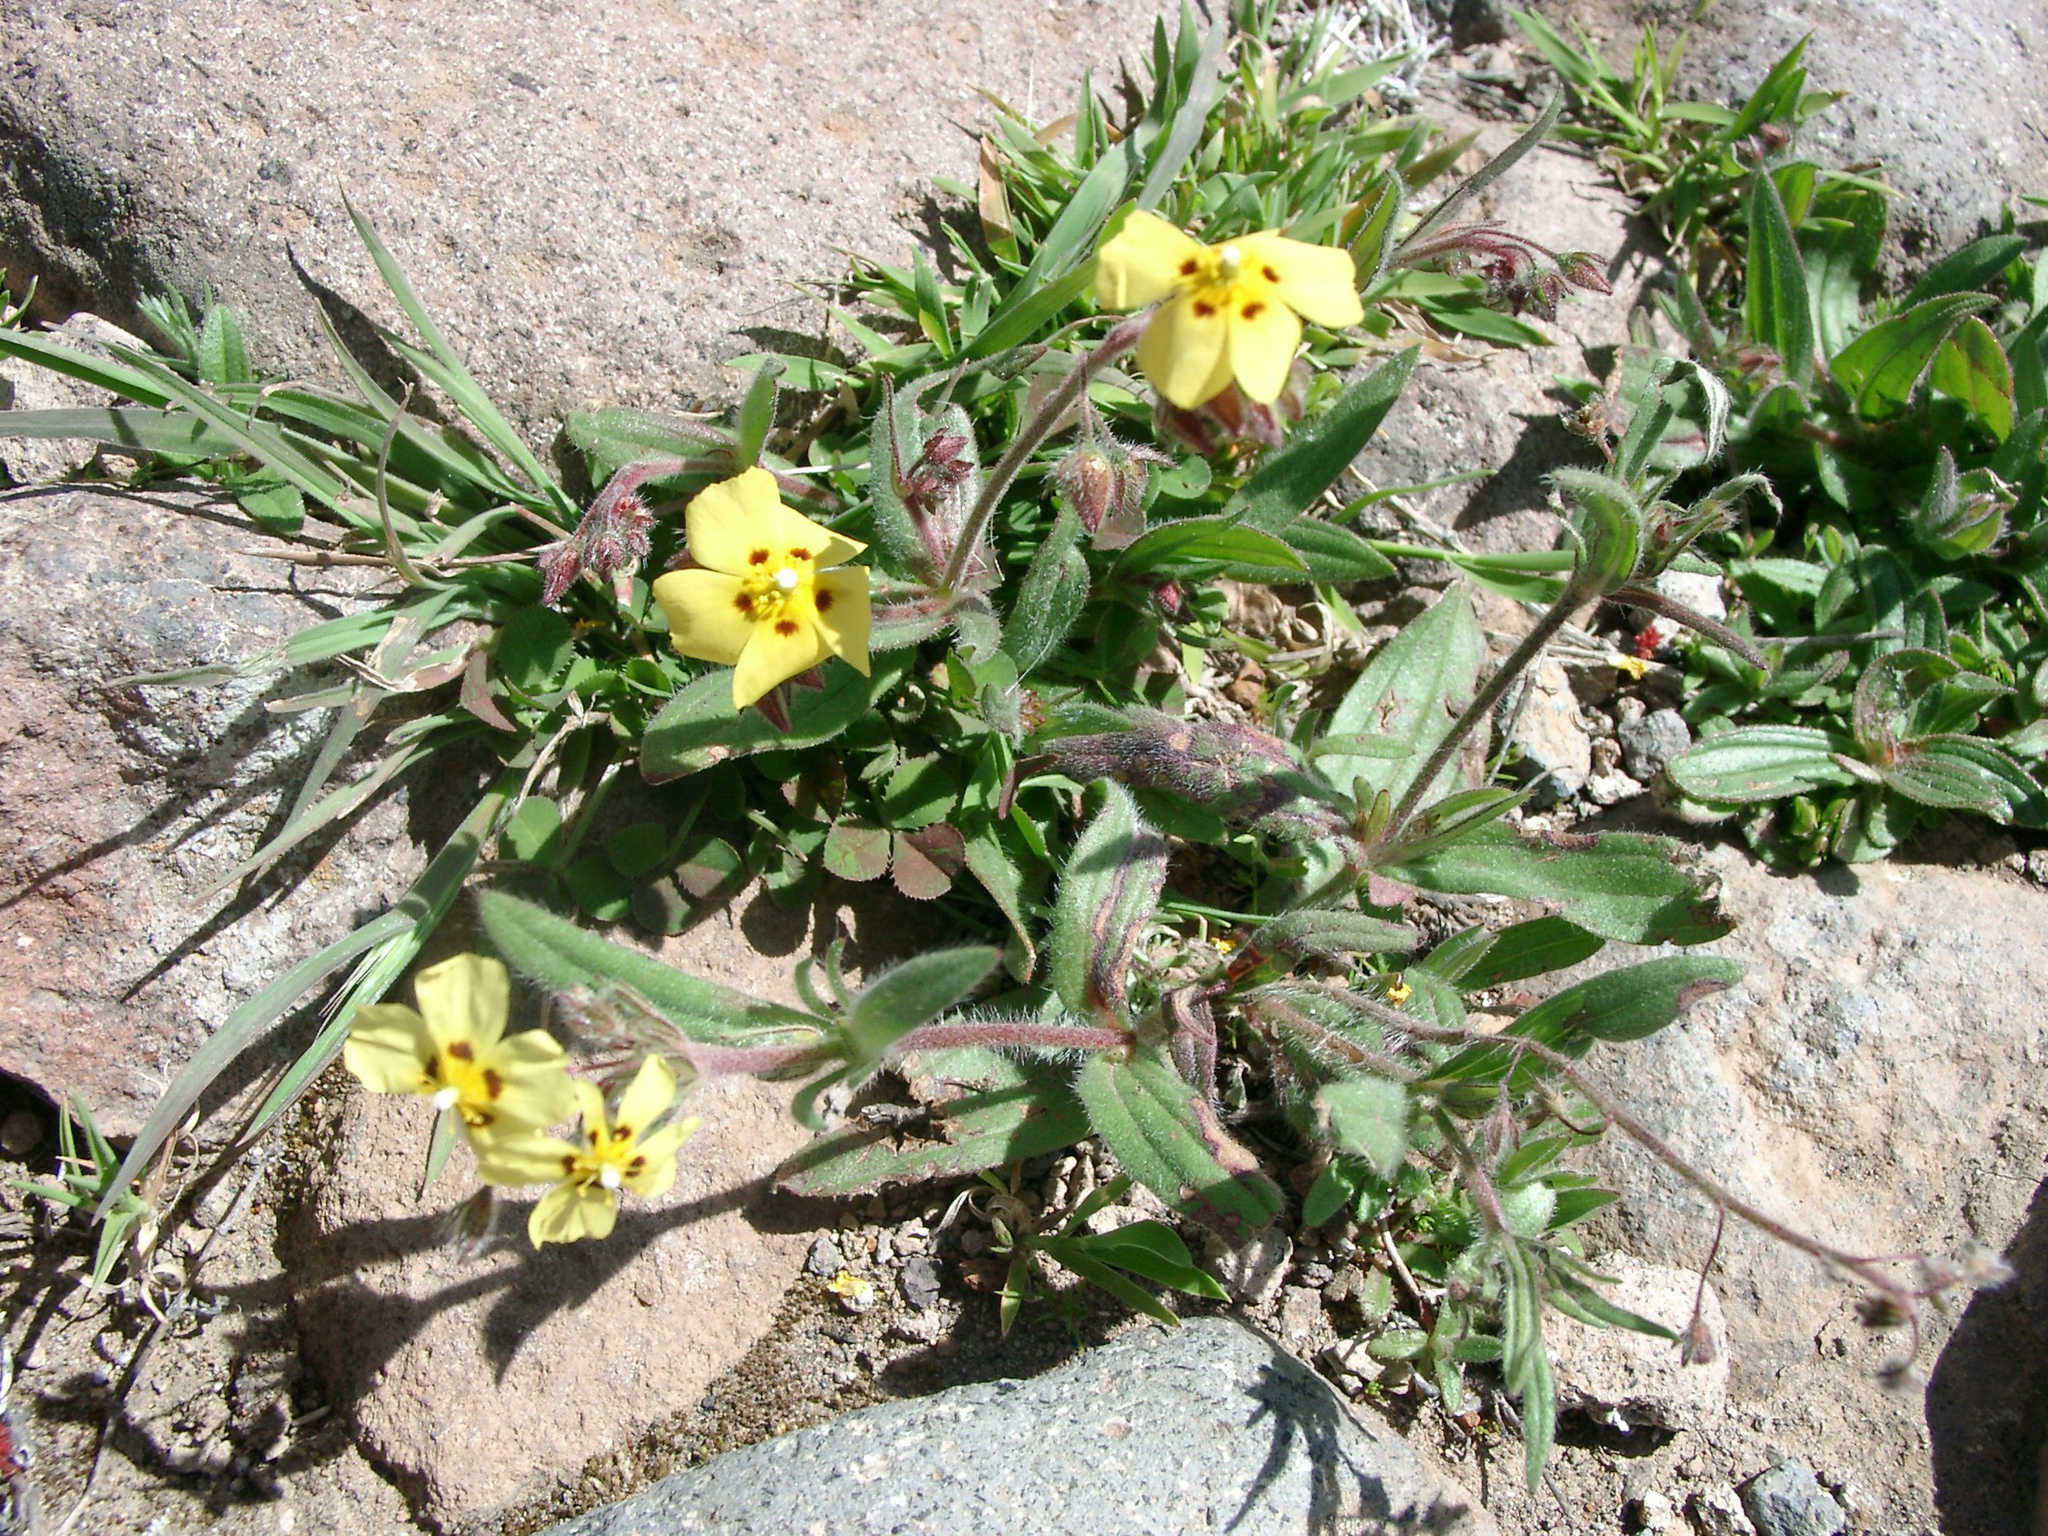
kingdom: Plantae
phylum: Tracheophyta
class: Magnoliopsida
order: Malvales
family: Cistaceae
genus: Tuberaria
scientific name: Tuberaria guttata
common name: Spotted rock-rose
